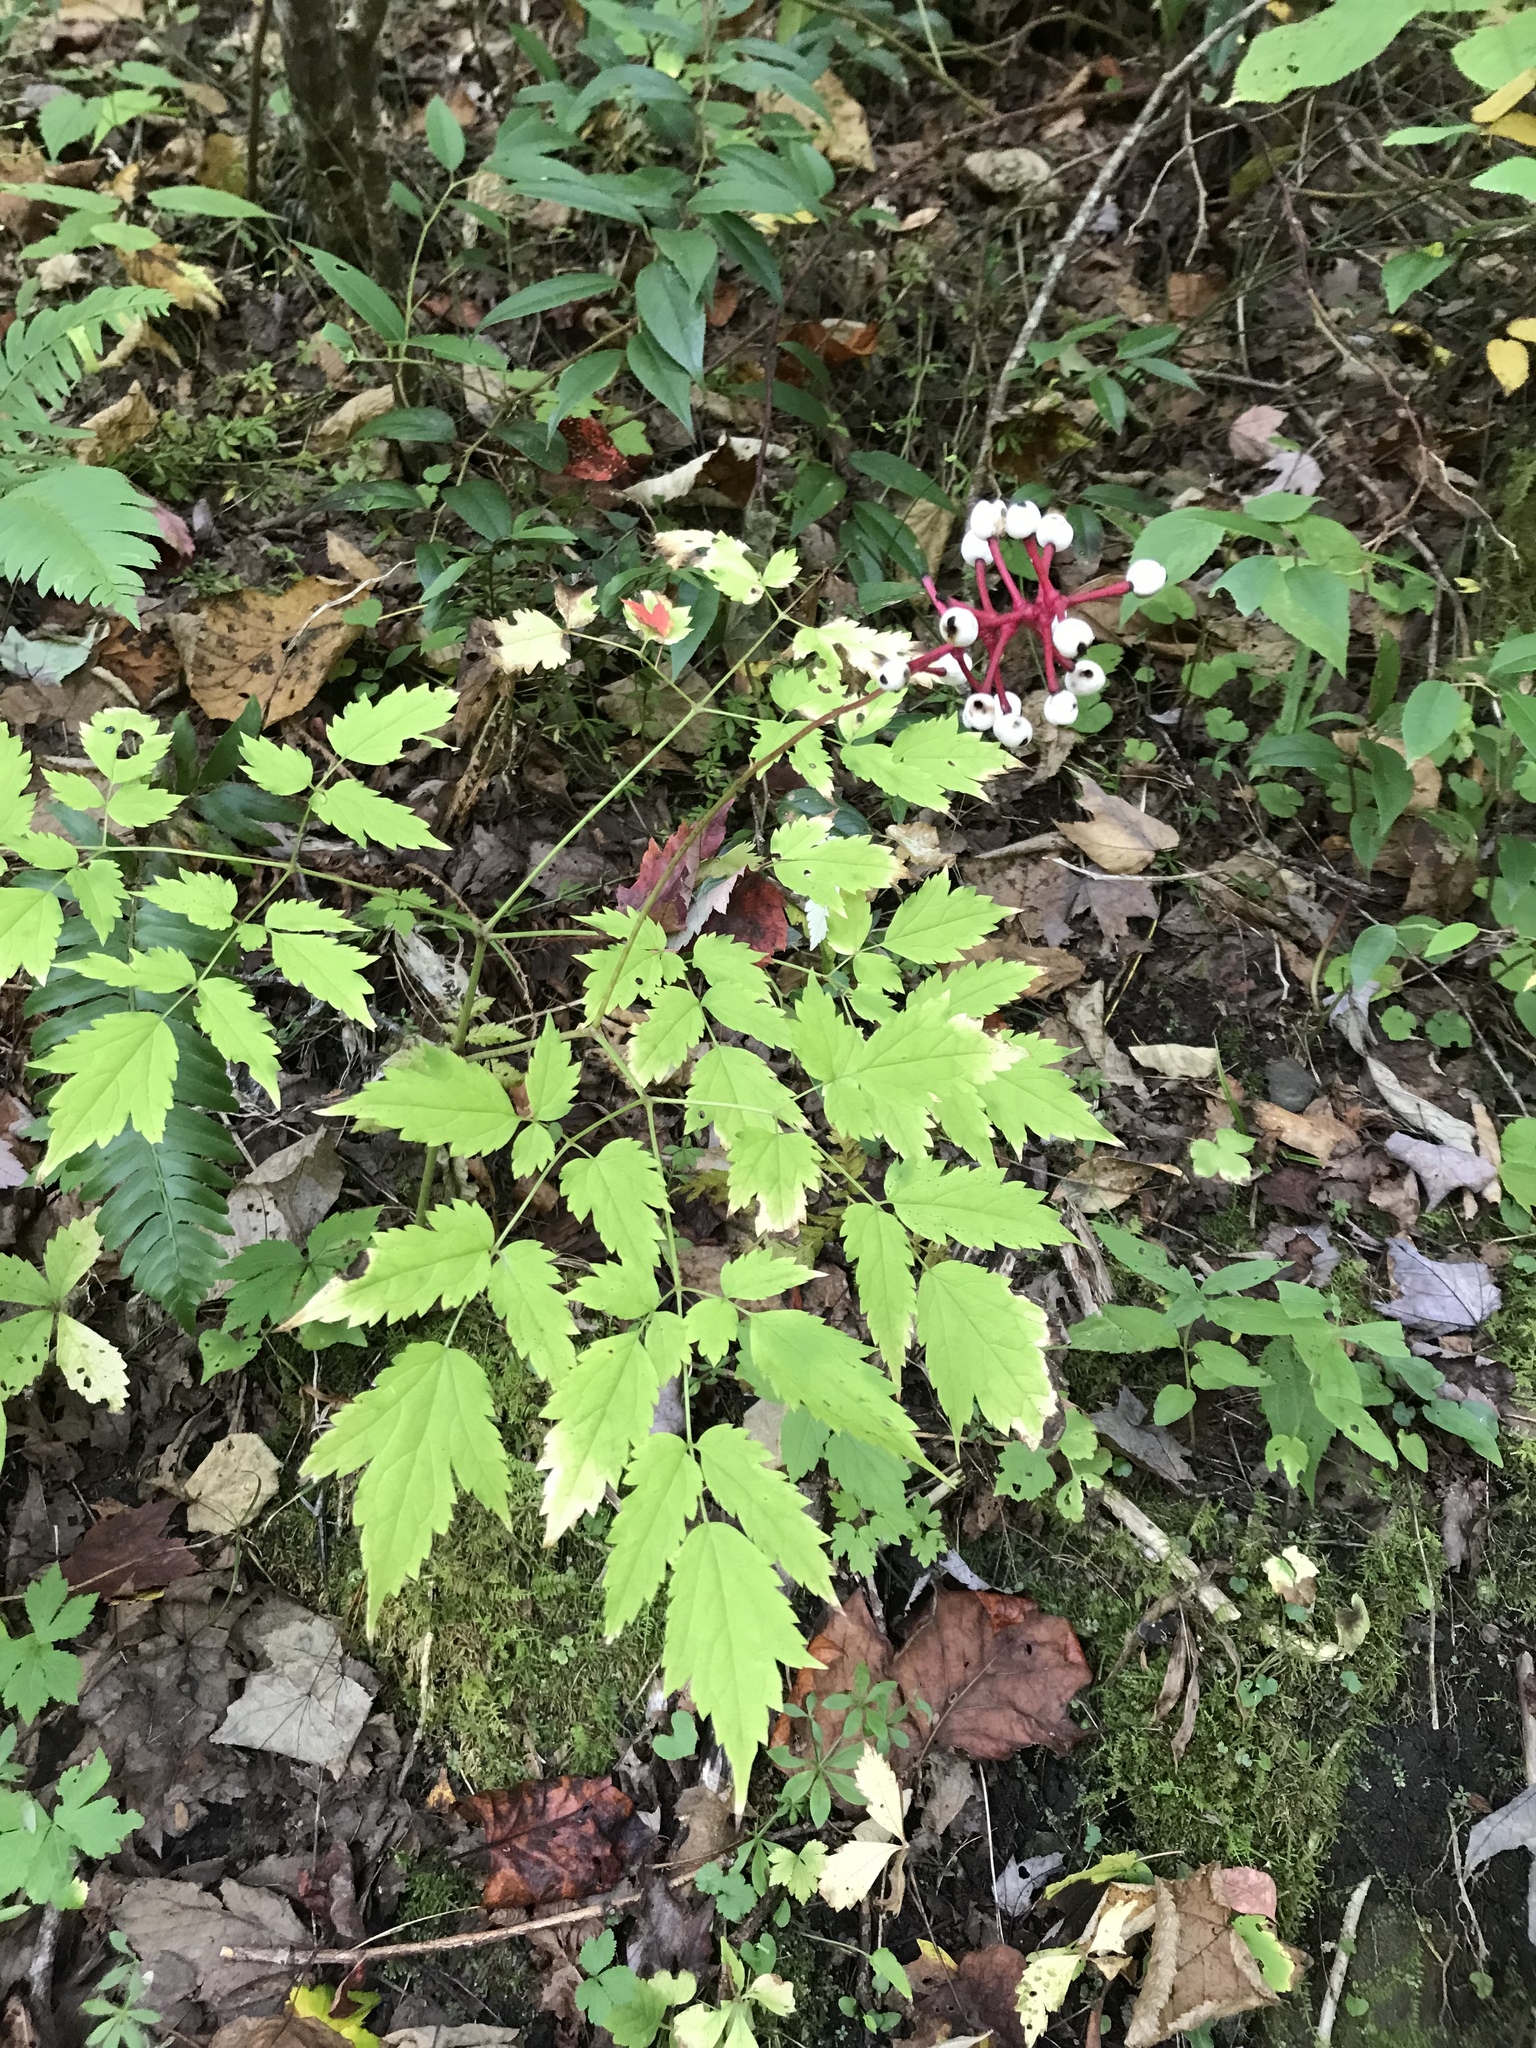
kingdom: Plantae
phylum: Tracheophyta
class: Magnoliopsida
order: Ranunculales
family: Ranunculaceae
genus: Actaea
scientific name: Actaea pachypoda
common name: Doll's-eyes
